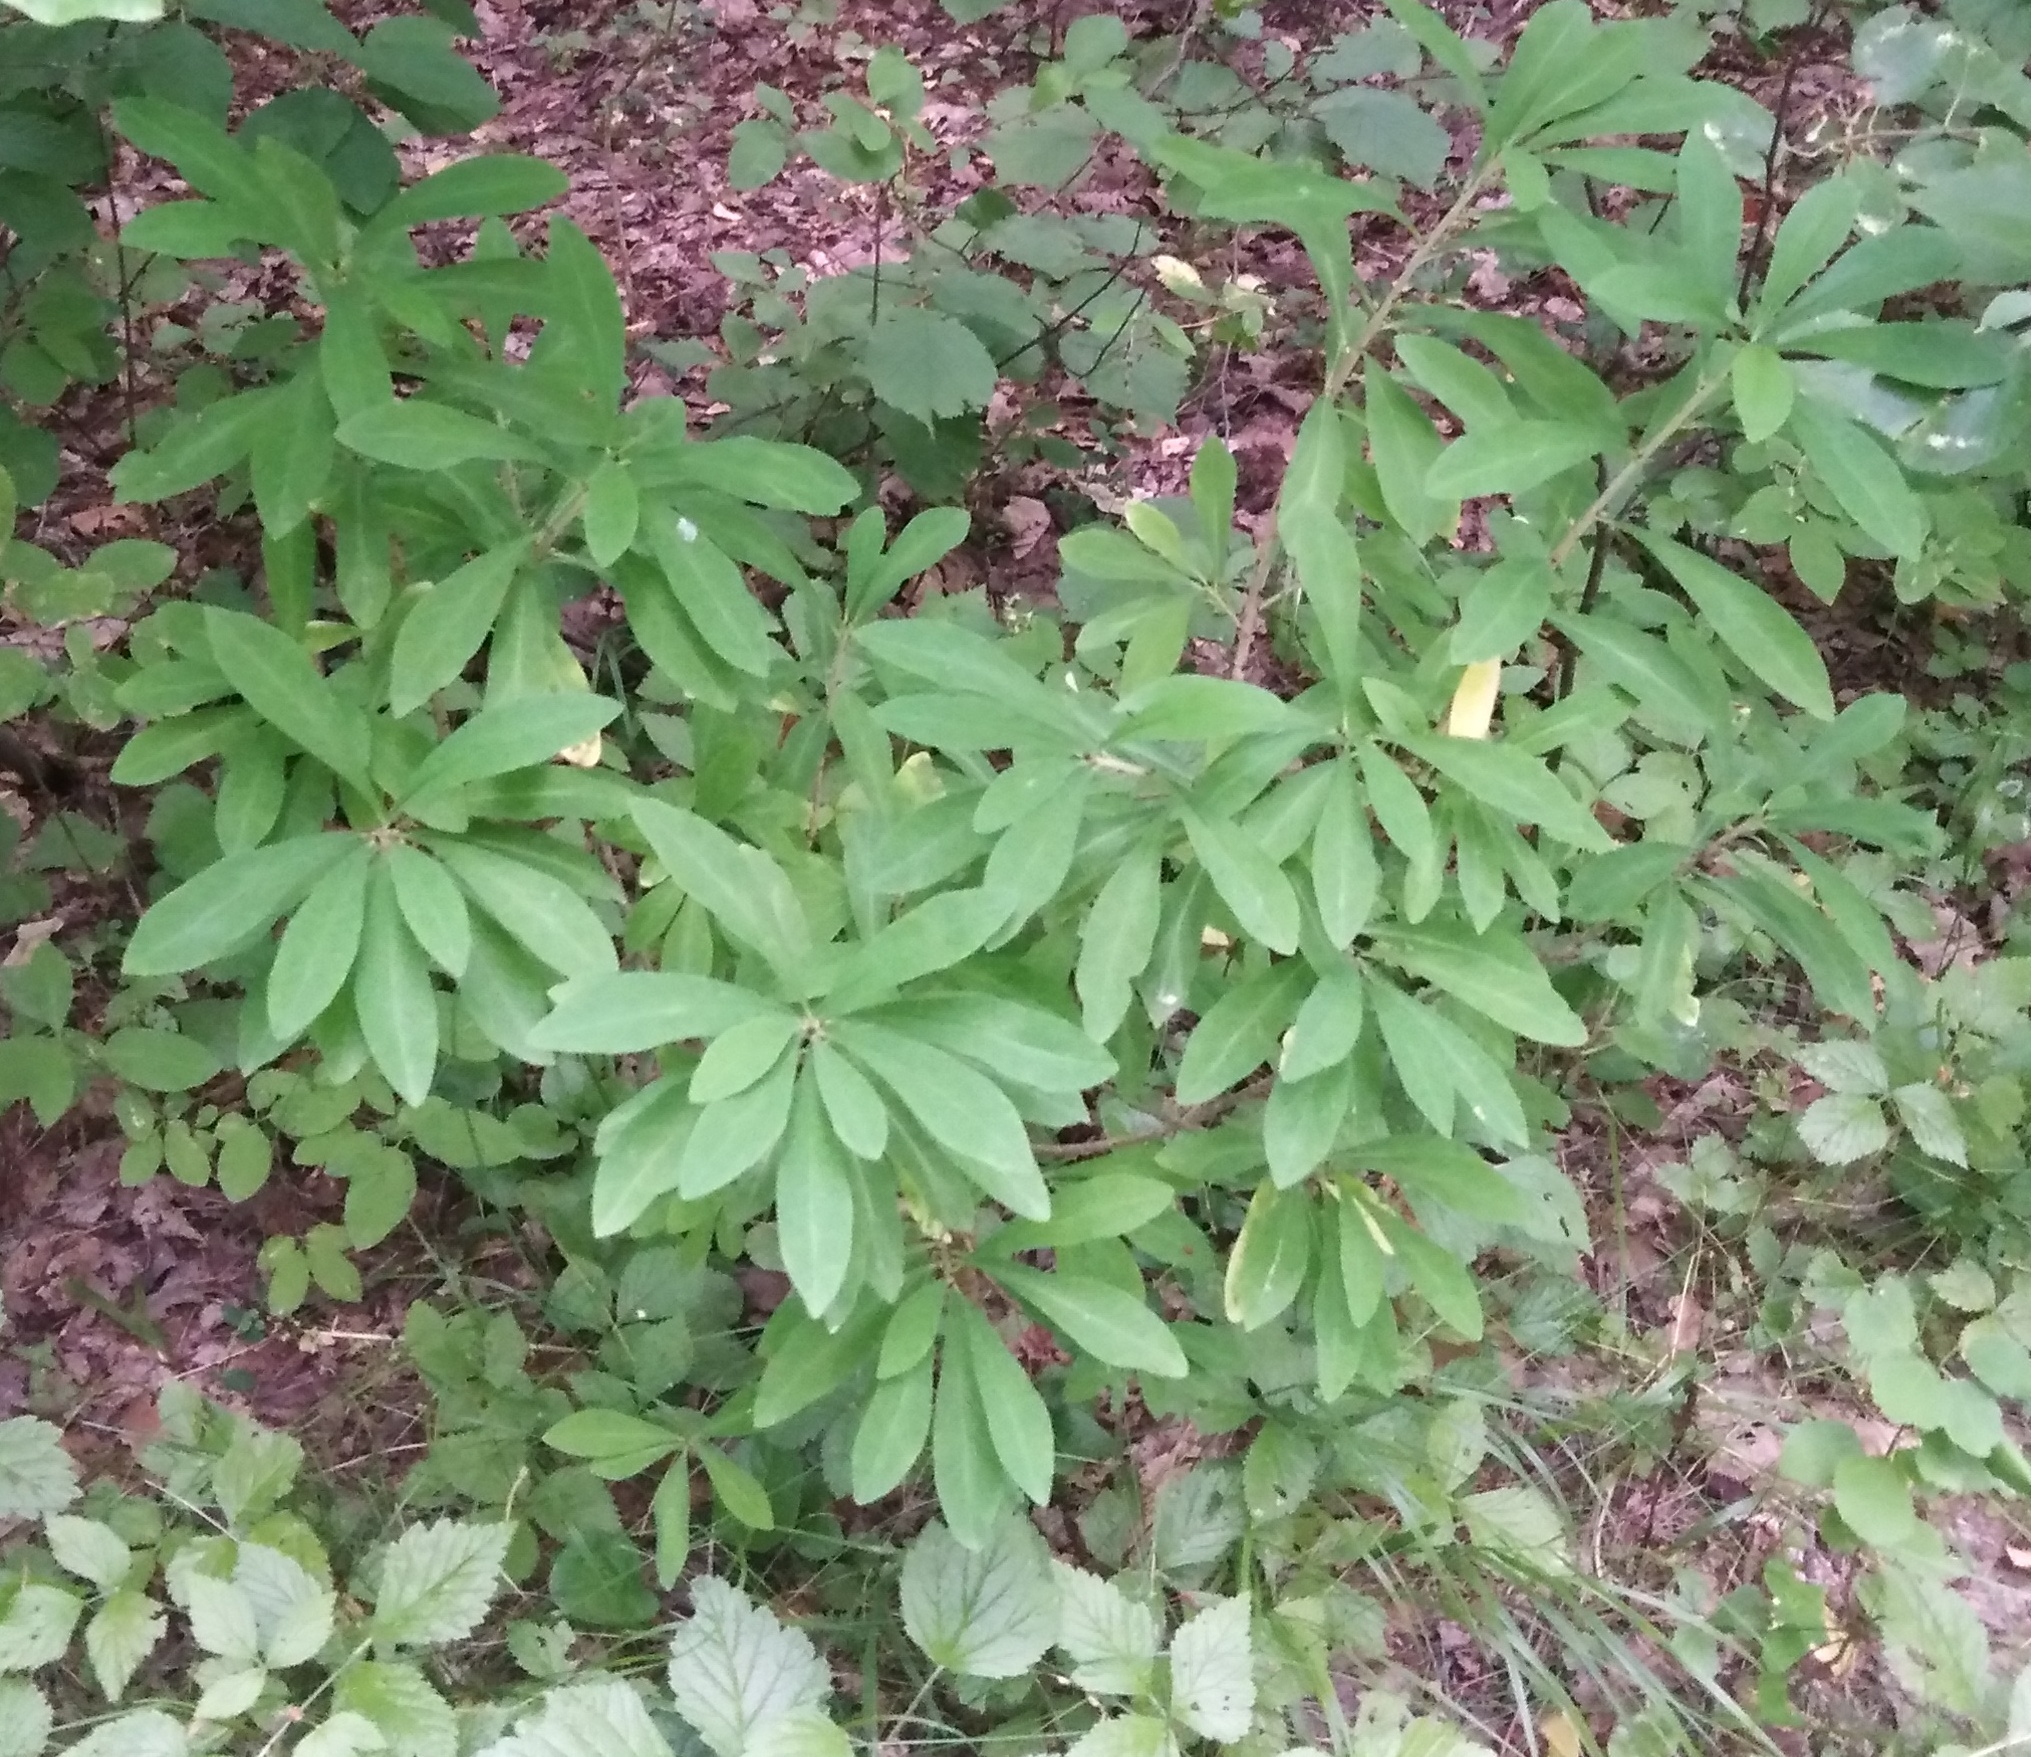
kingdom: Plantae
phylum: Tracheophyta
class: Magnoliopsida
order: Malvales
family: Thymelaeaceae
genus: Daphne
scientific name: Daphne mezereum
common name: Mezereon
